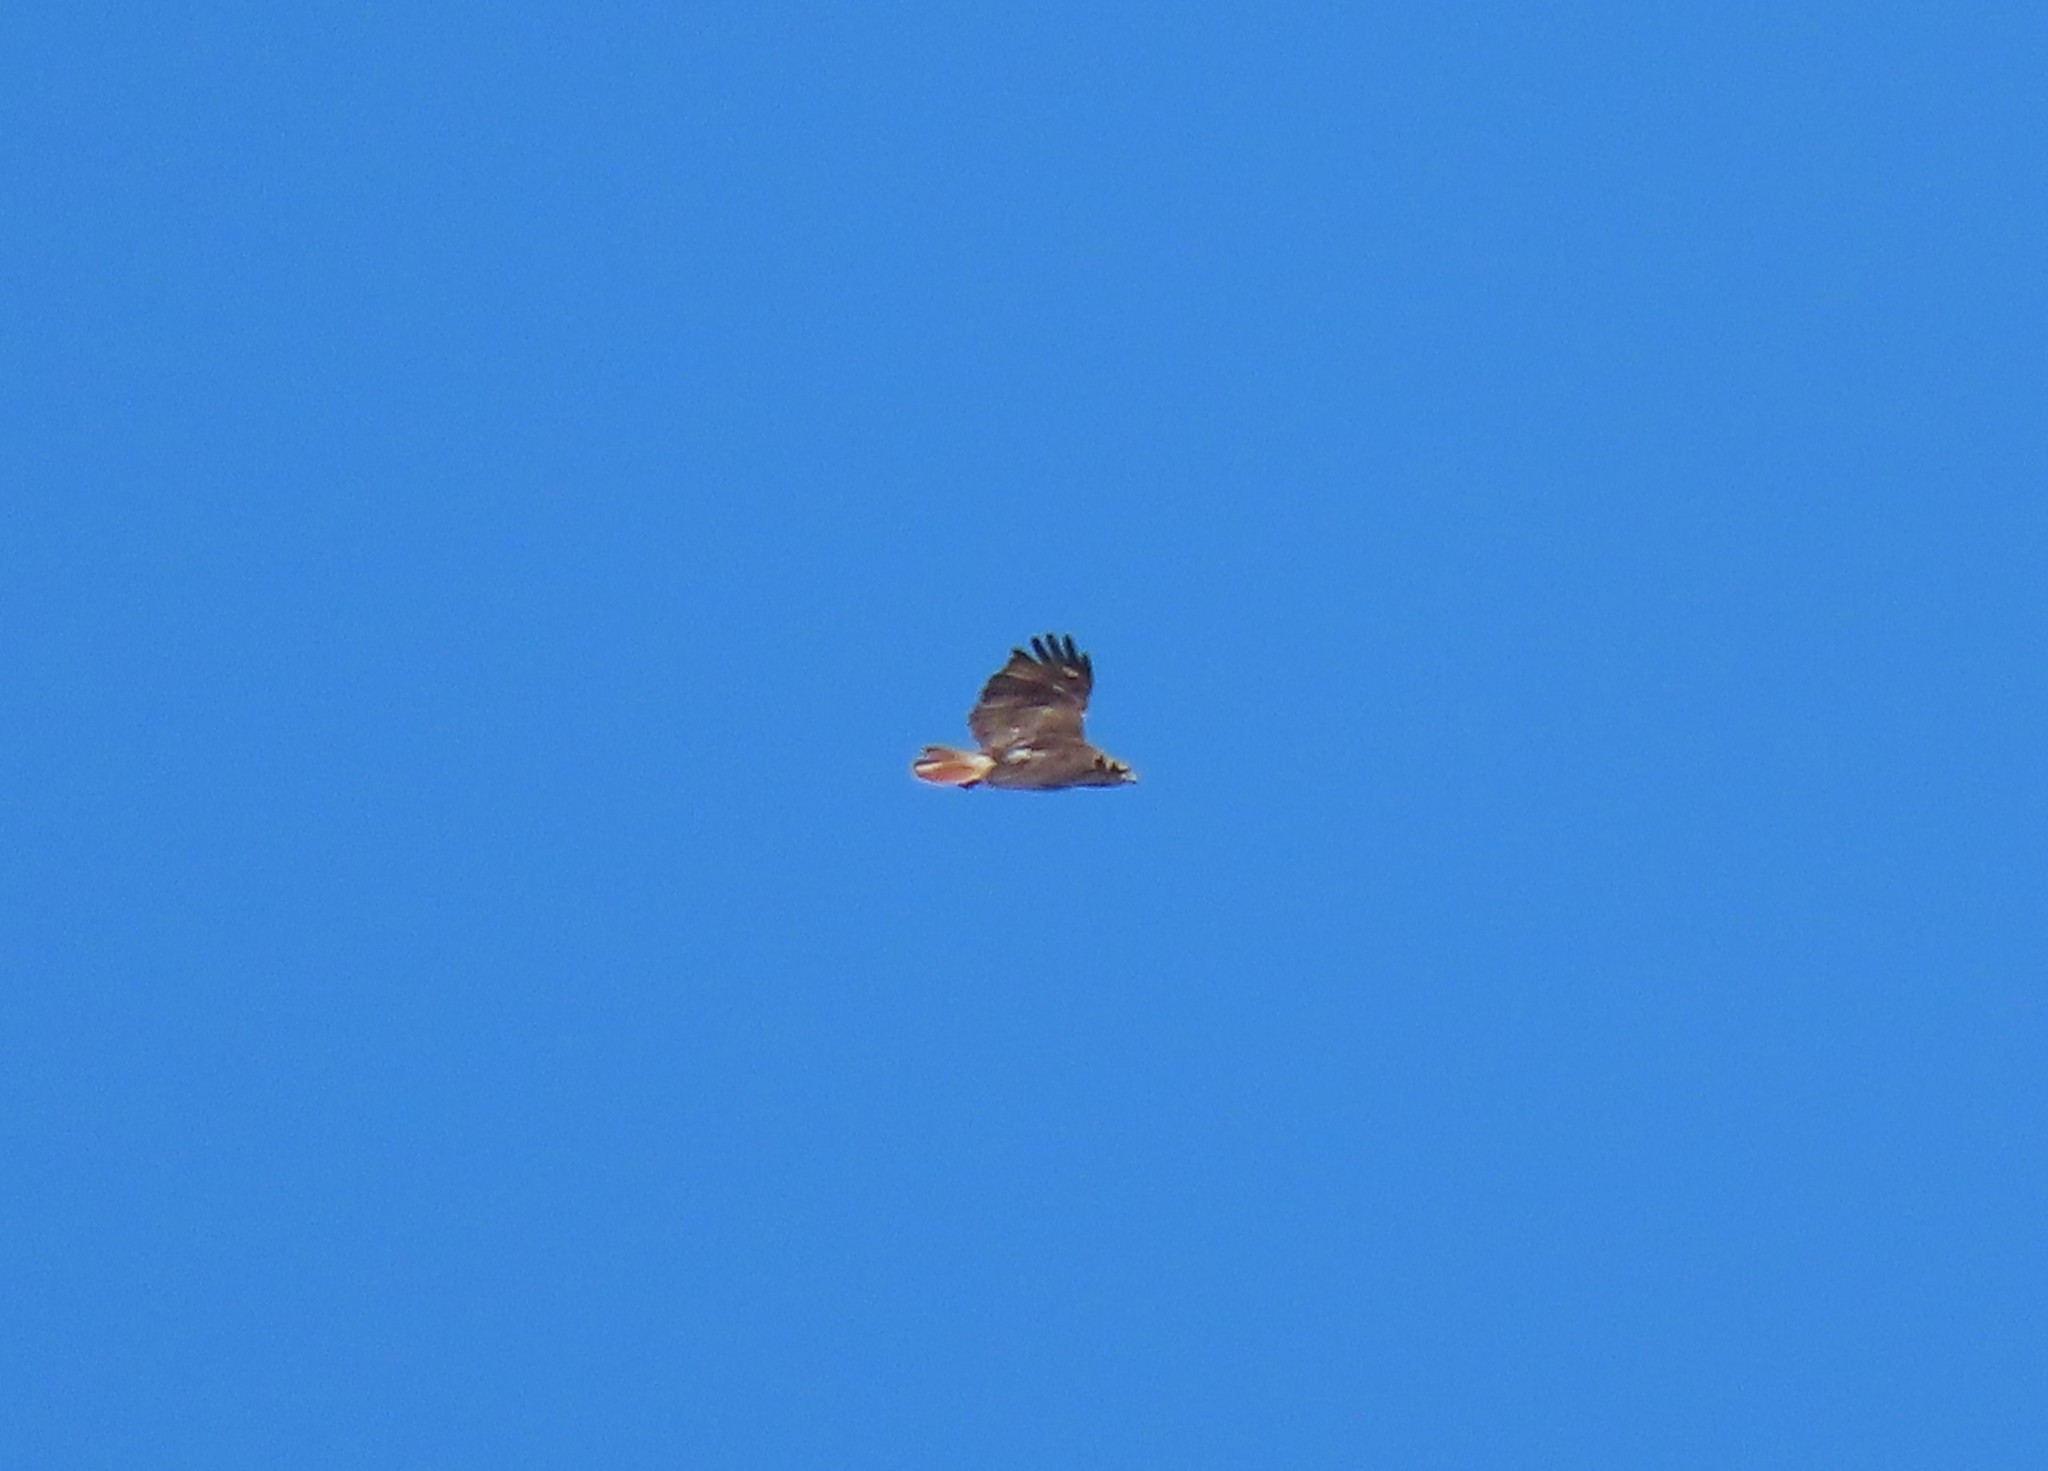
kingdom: Animalia
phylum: Chordata
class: Aves
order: Accipitriformes
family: Accipitridae
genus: Buteo
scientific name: Buteo jamaicensis
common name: Red-tailed hawk
